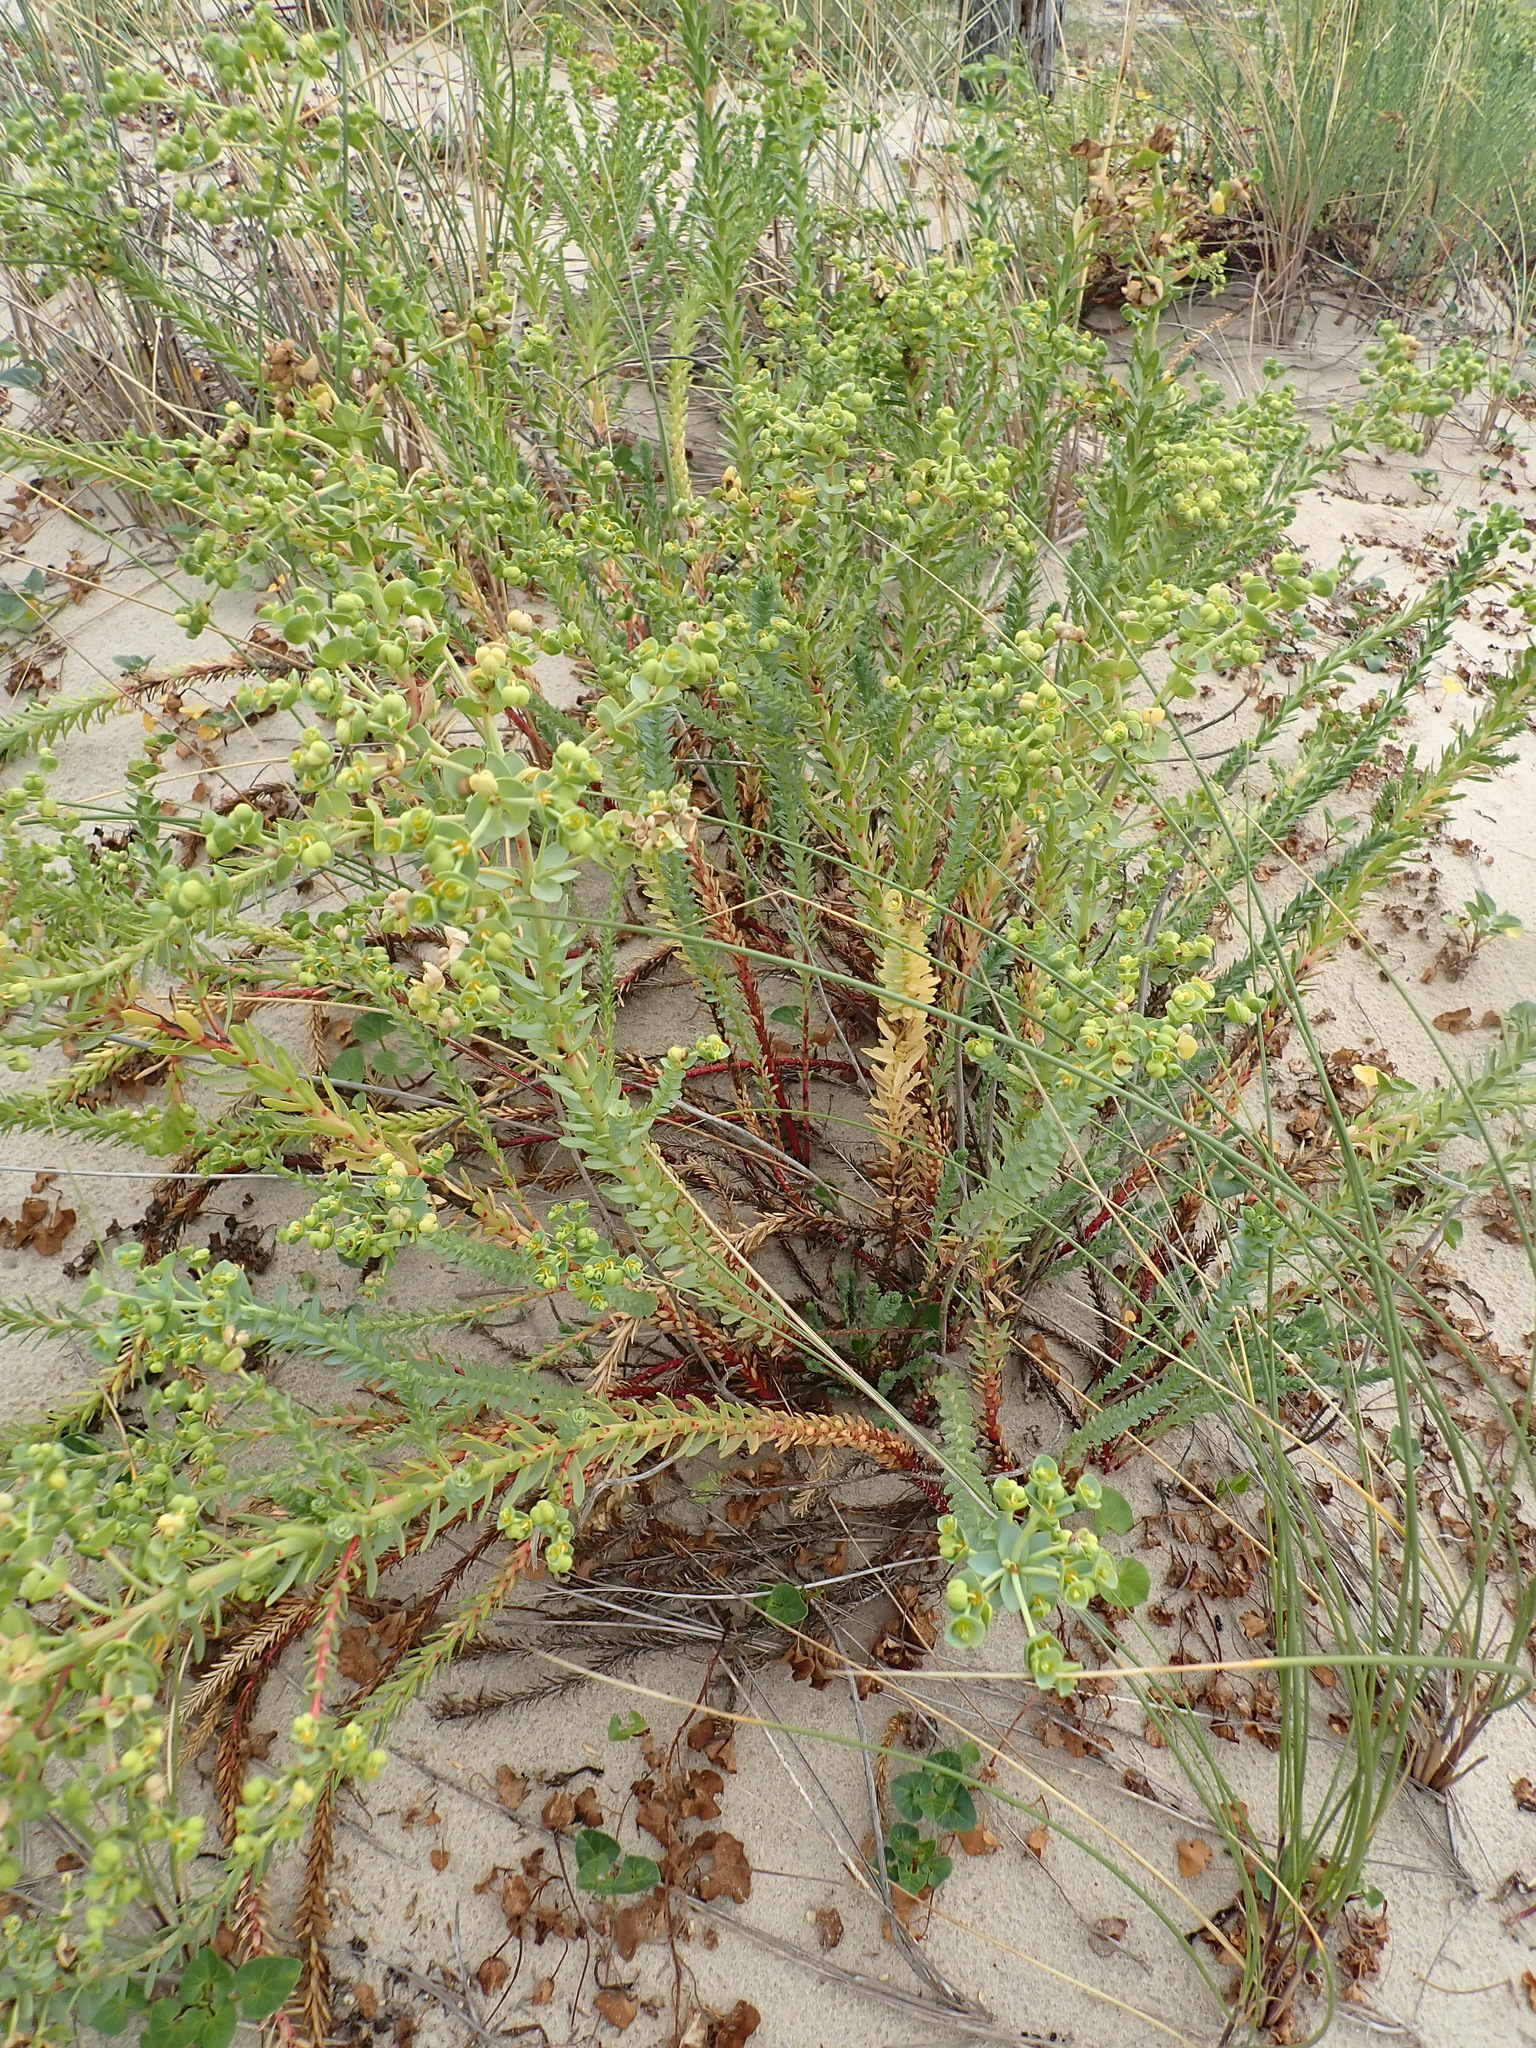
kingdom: Plantae
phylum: Tracheophyta
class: Magnoliopsida
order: Malpighiales
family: Euphorbiaceae
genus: Euphorbia
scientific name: Euphorbia paralias
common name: Sea spurge
